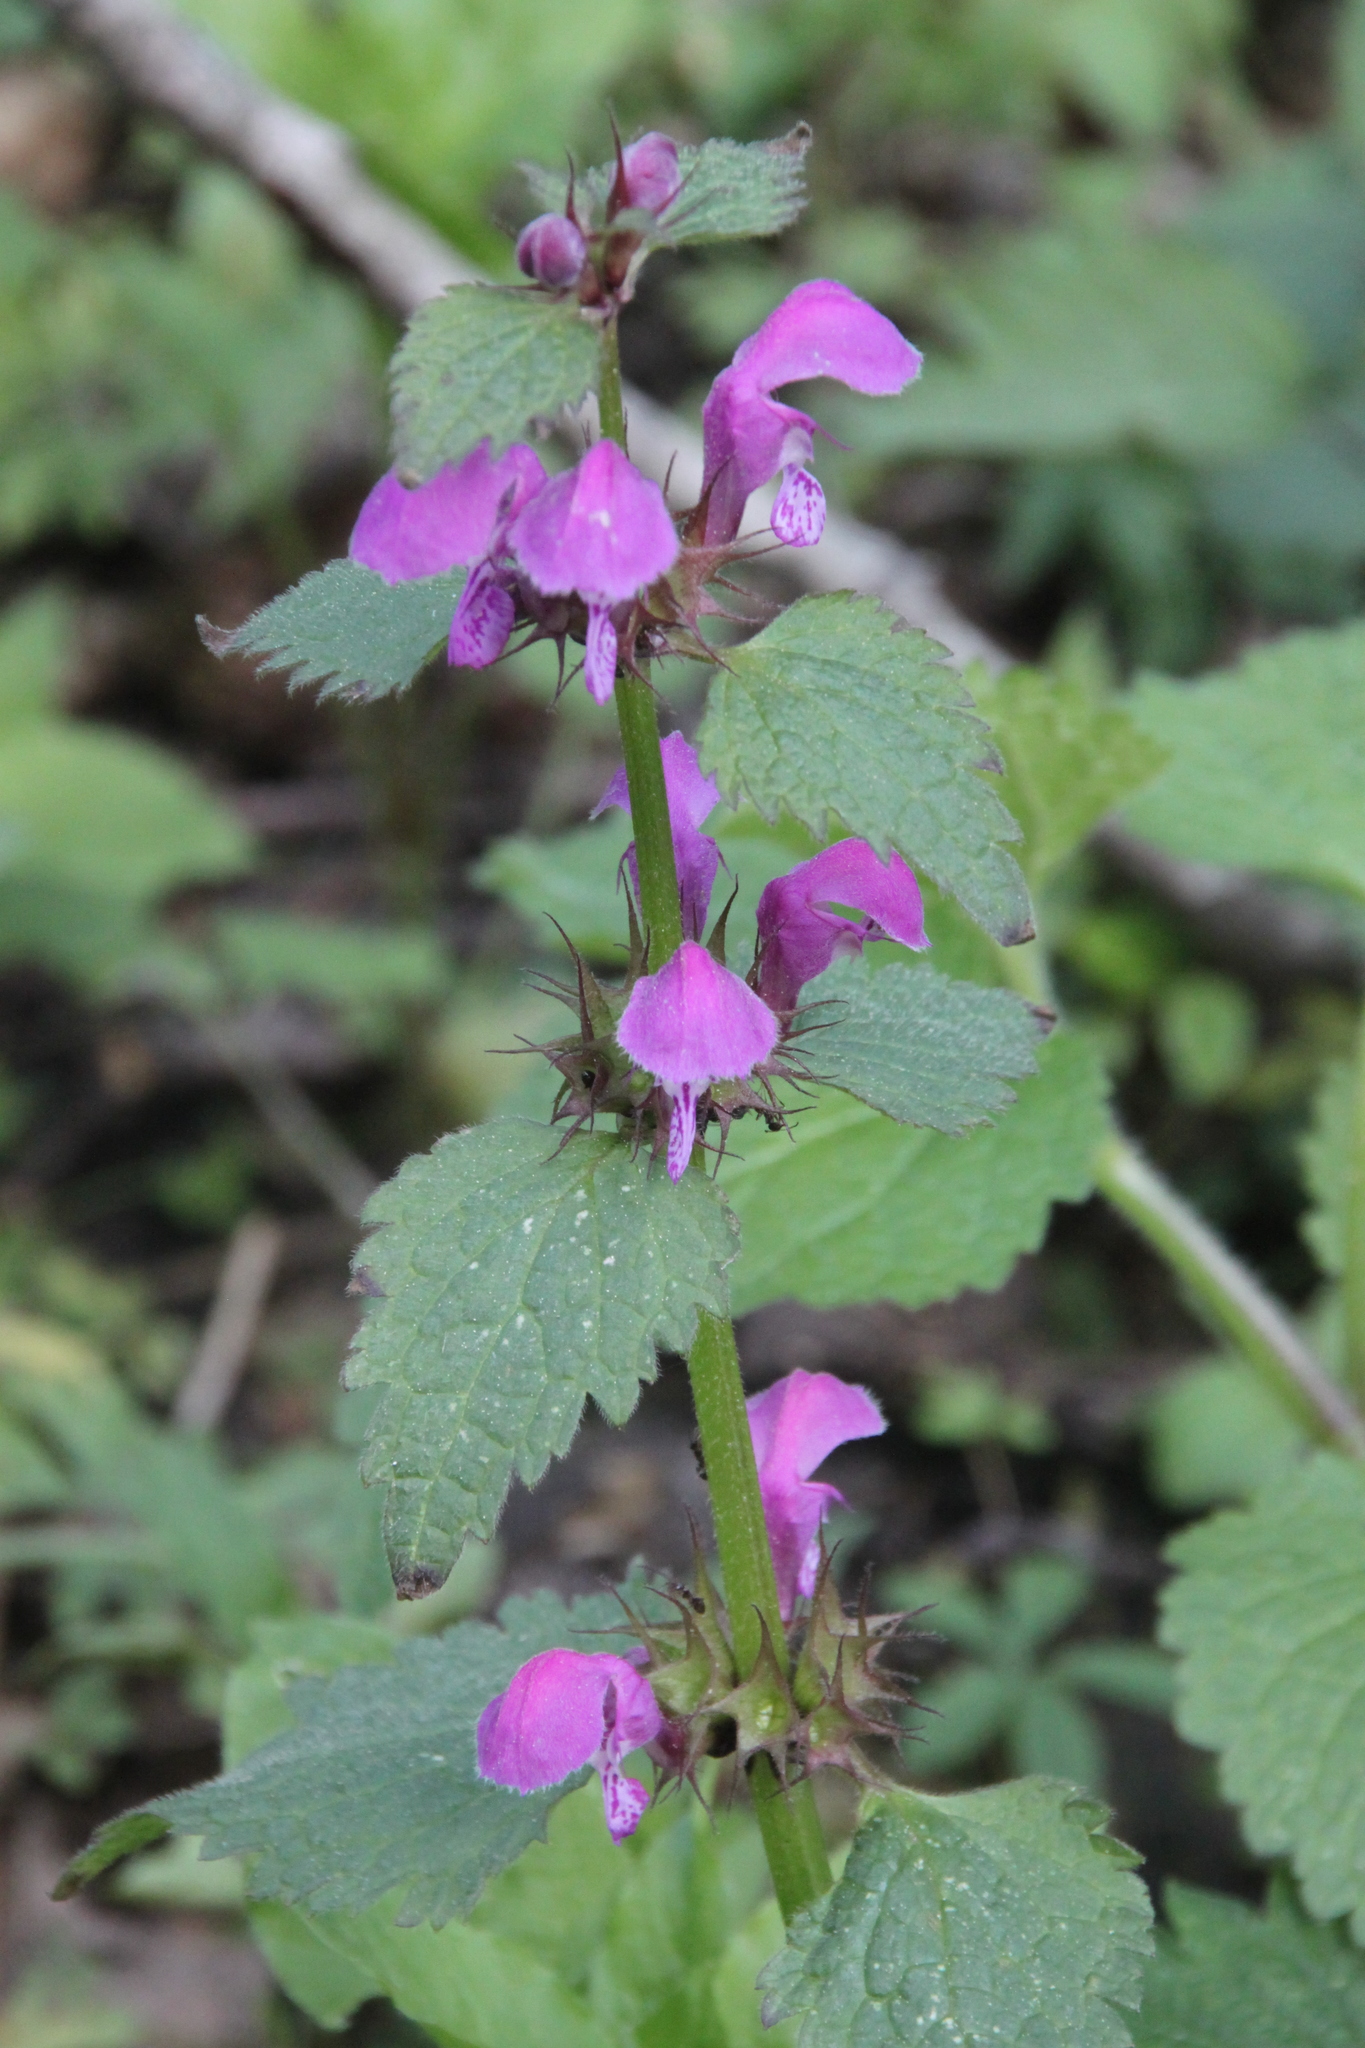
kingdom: Plantae
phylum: Tracheophyta
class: Magnoliopsida
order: Lamiales
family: Lamiaceae
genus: Lamium
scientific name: Lamium maculatum
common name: Spotted dead-nettle
